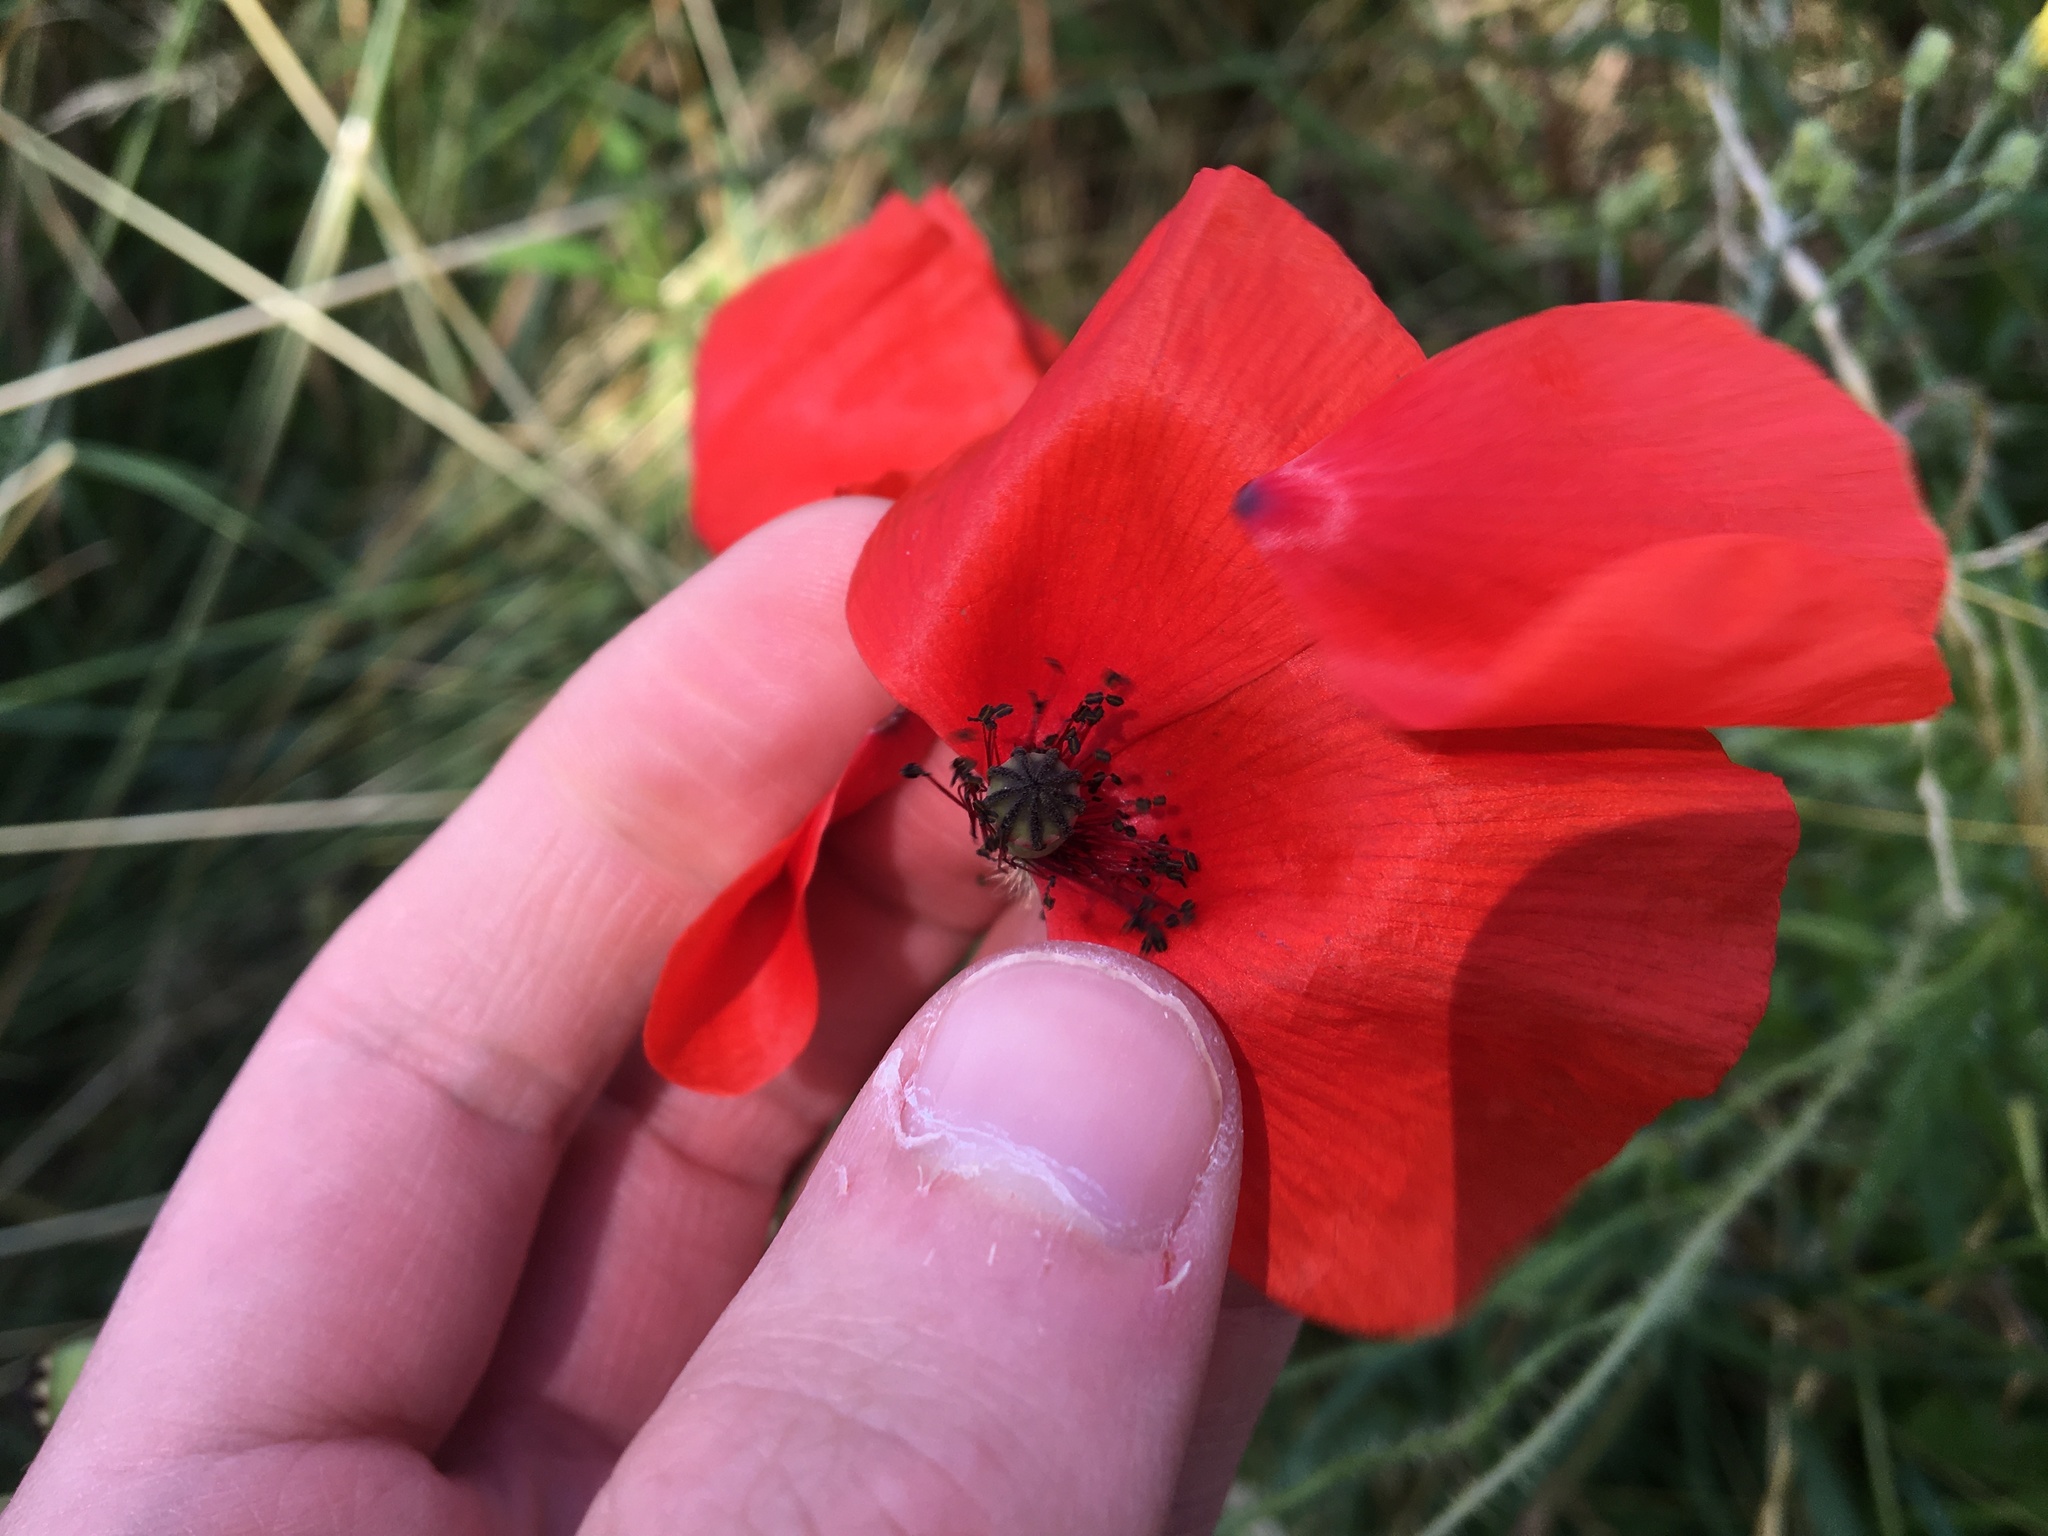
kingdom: Plantae
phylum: Tracheophyta
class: Magnoliopsida
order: Ranunculales
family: Papaveraceae
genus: Papaver
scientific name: Papaver rhoeas
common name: Corn poppy
